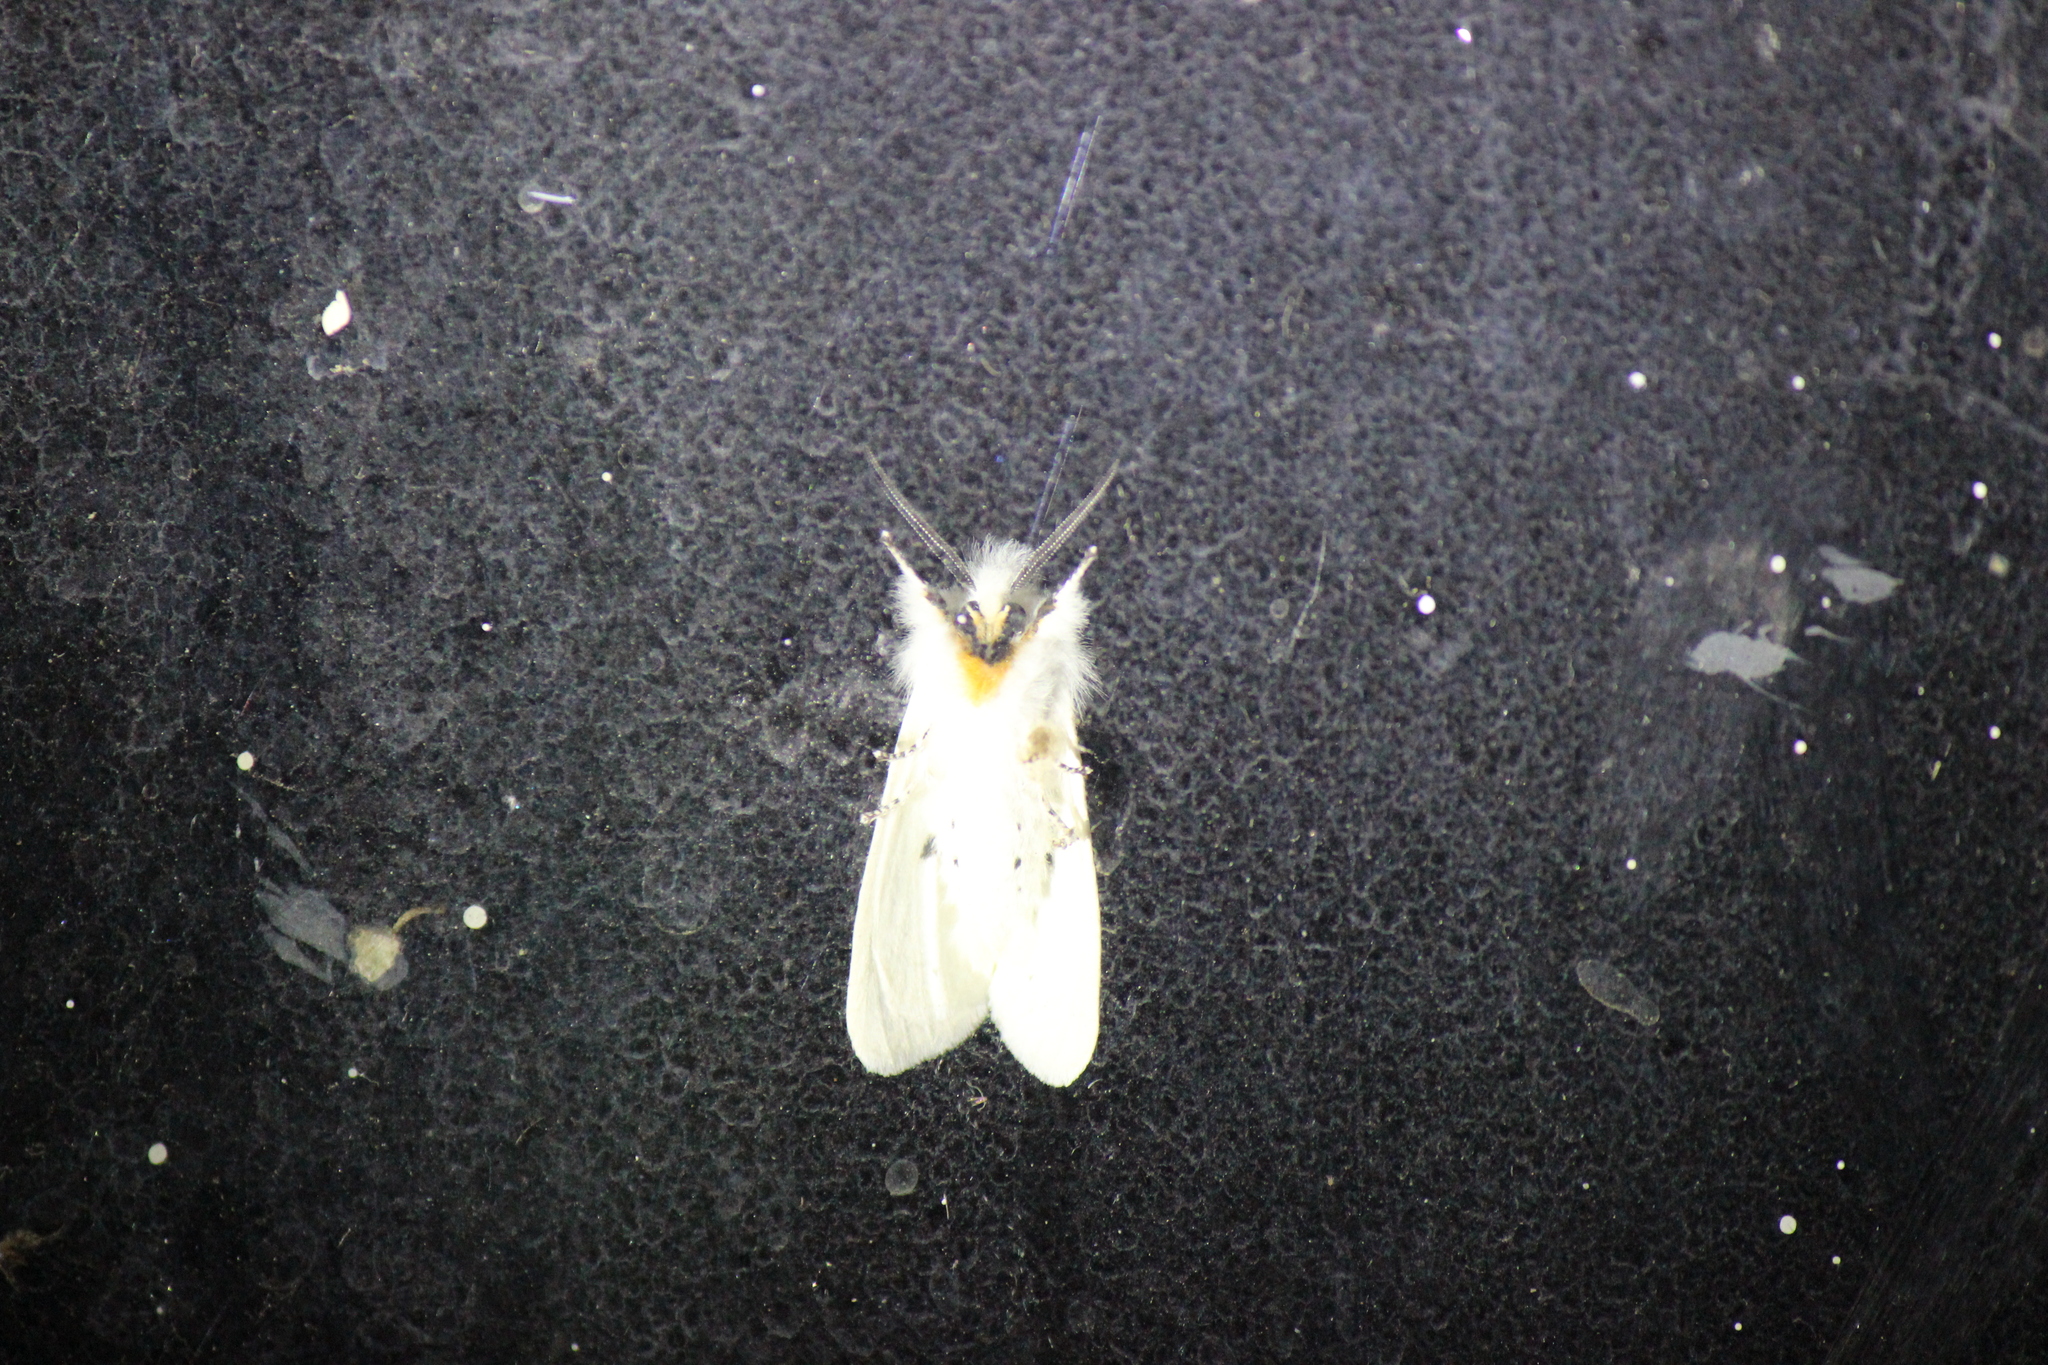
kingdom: Animalia
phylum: Arthropoda
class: Insecta
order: Lepidoptera
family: Erebidae
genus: Spilosoma
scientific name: Spilosoma virginica
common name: Virginia tiger moth
